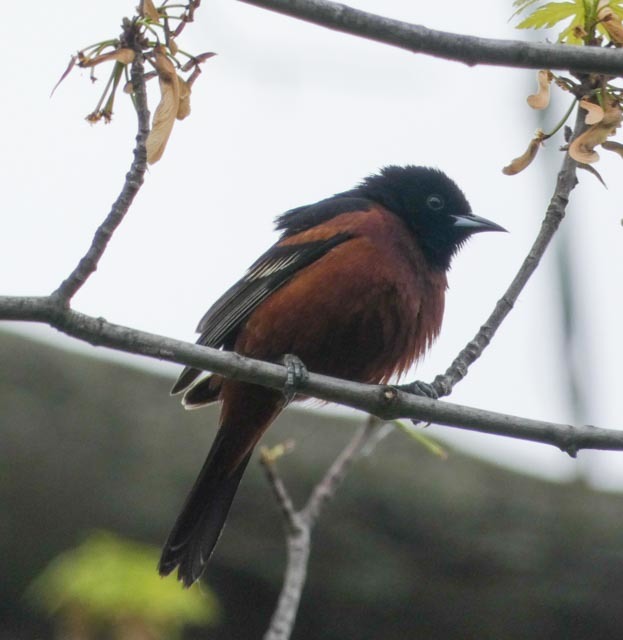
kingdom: Animalia
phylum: Chordata
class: Aves
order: Passeriformes
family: Icteridae
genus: Icterus
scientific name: Icterus spurius
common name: Orchard oriole
